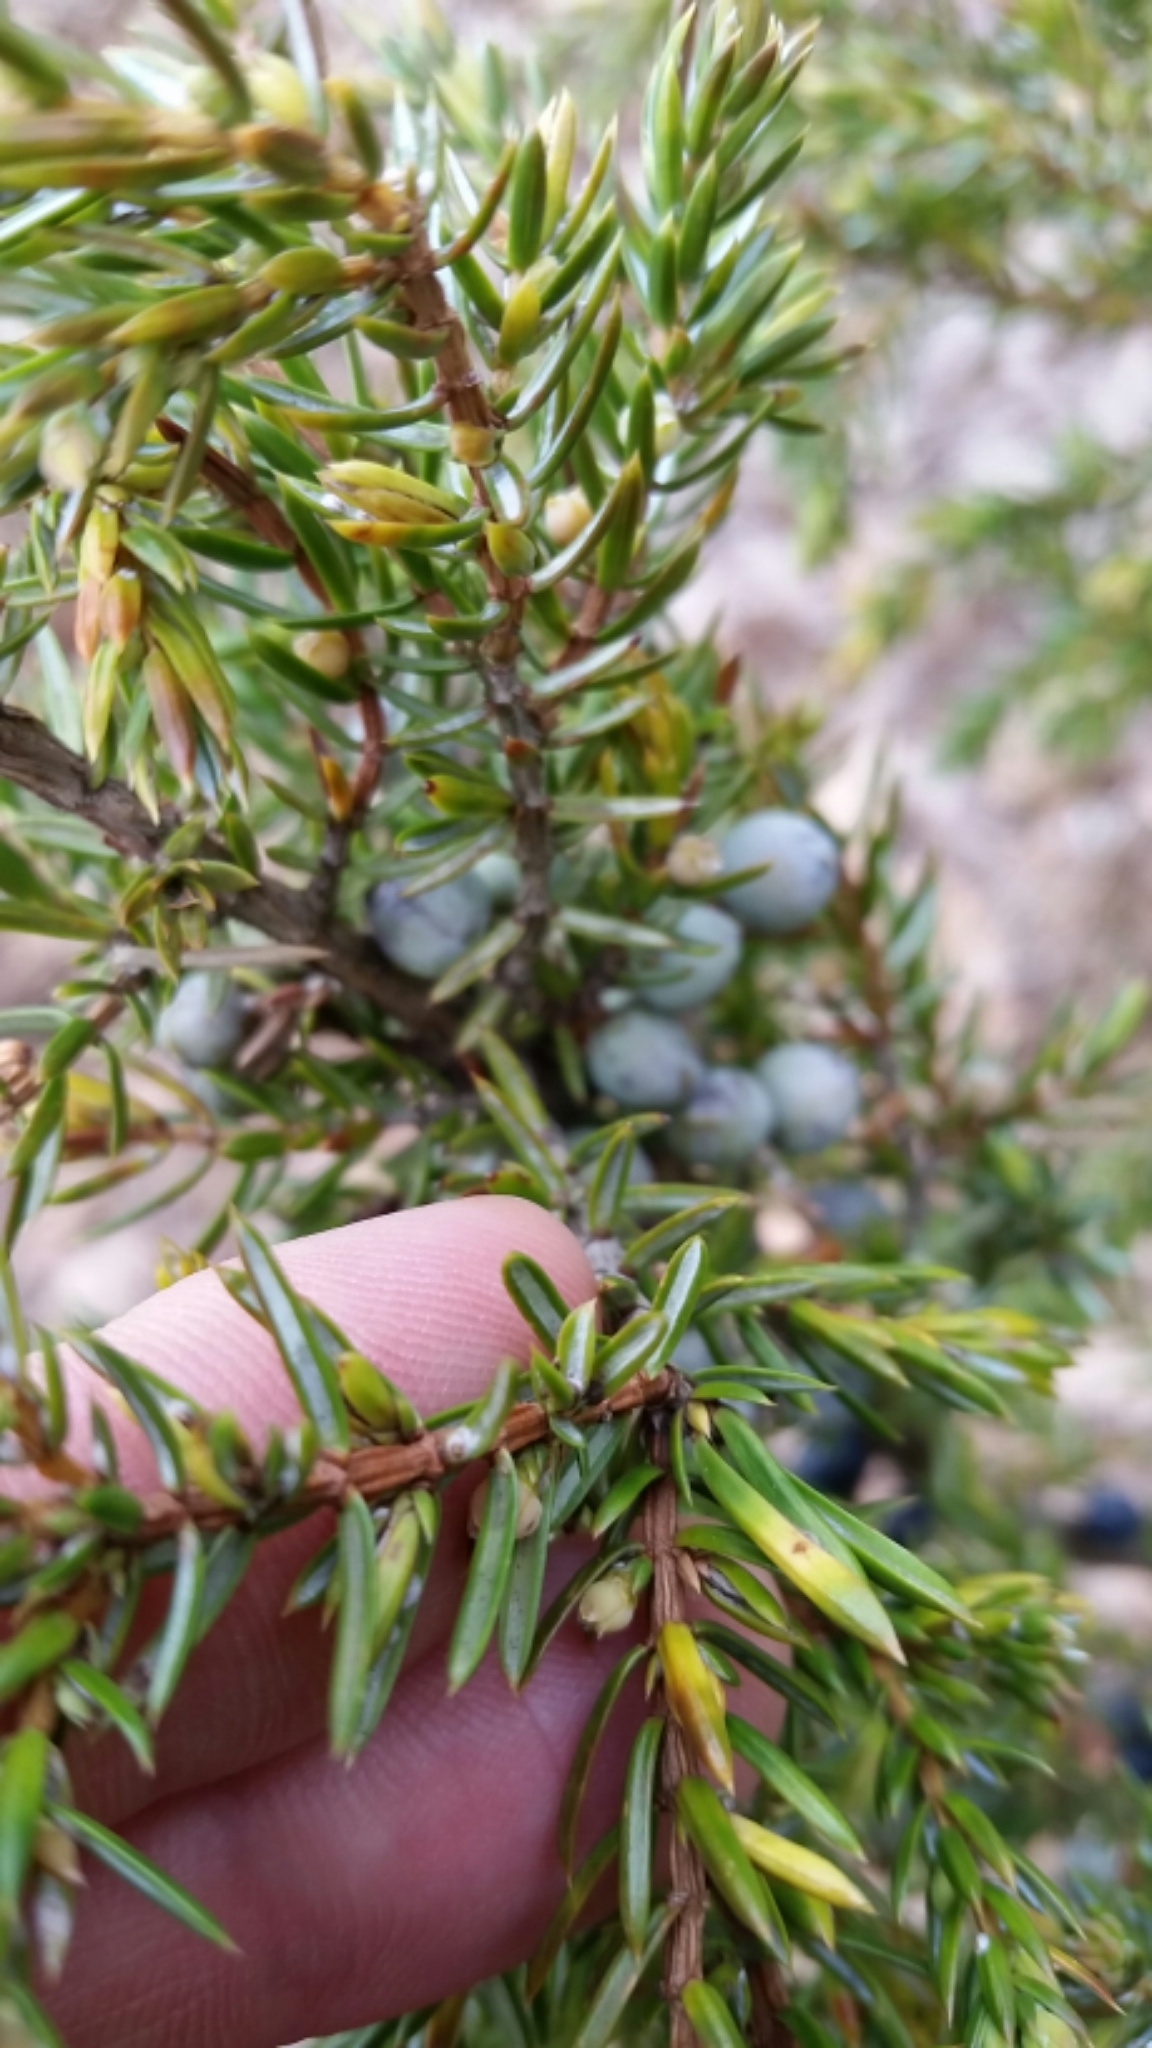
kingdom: Plantae
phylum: Tracheophyta
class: Pinopsida
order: Pinales
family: Cupressaceae
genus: Juniperus
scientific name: Juniperus communis
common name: Common juniper
